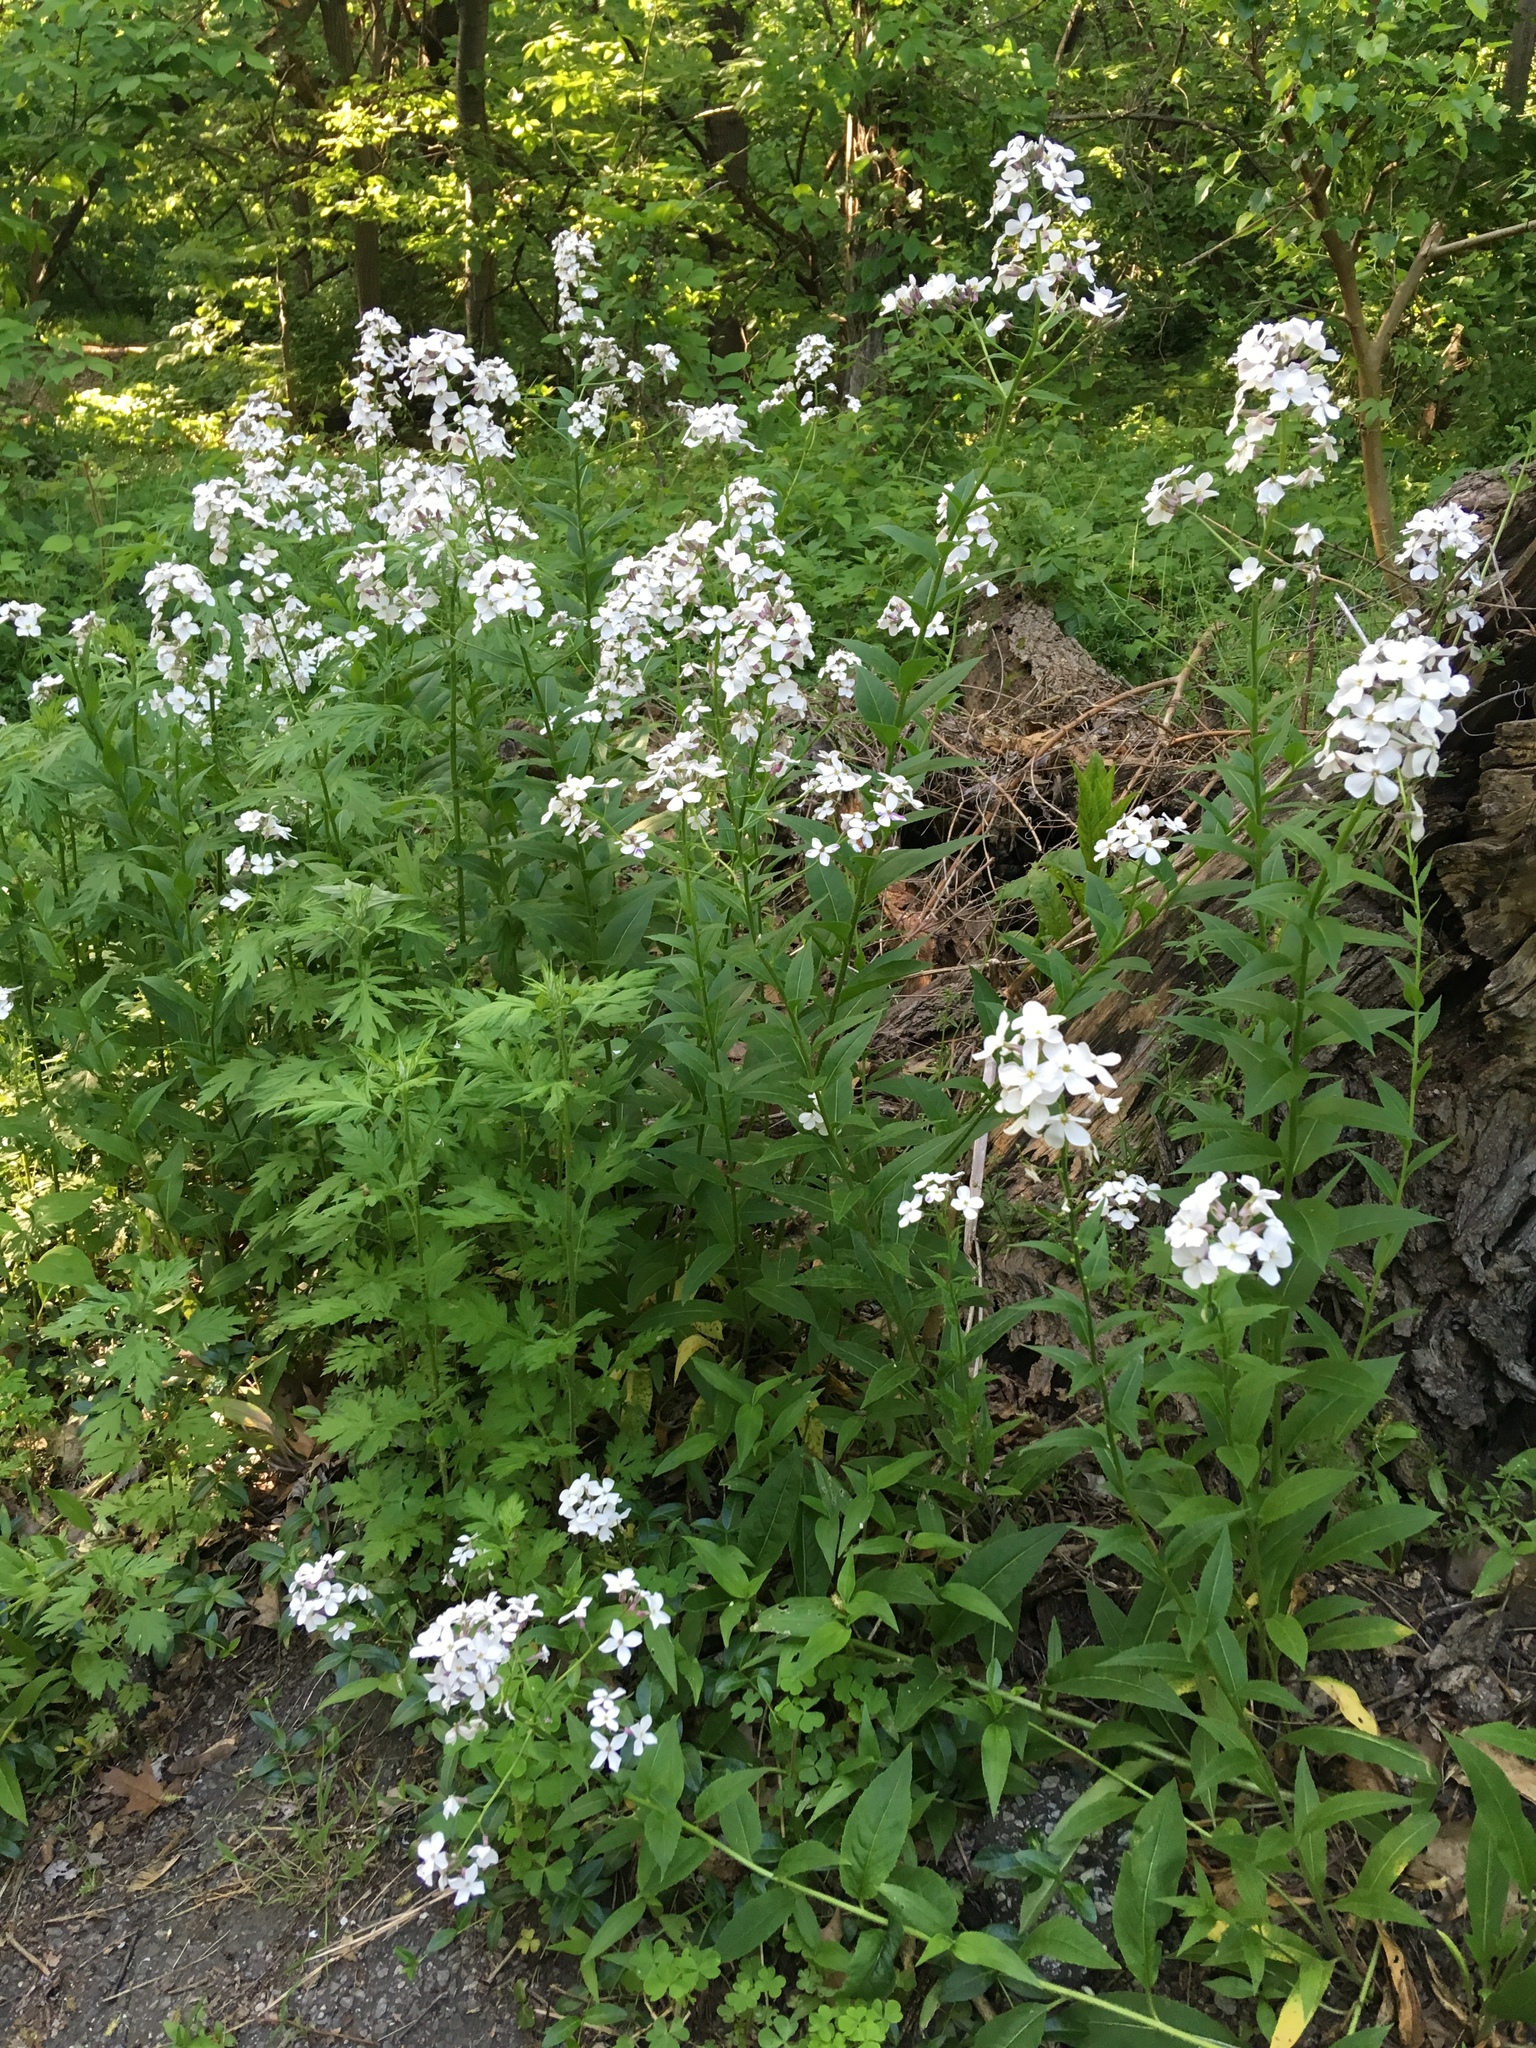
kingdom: Plantae
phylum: Tracheophyta
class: Magnoliopsida
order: Brassicales
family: Brassicaceae
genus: Hesperis
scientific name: Hesperis matronalis
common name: Dame's-violet
